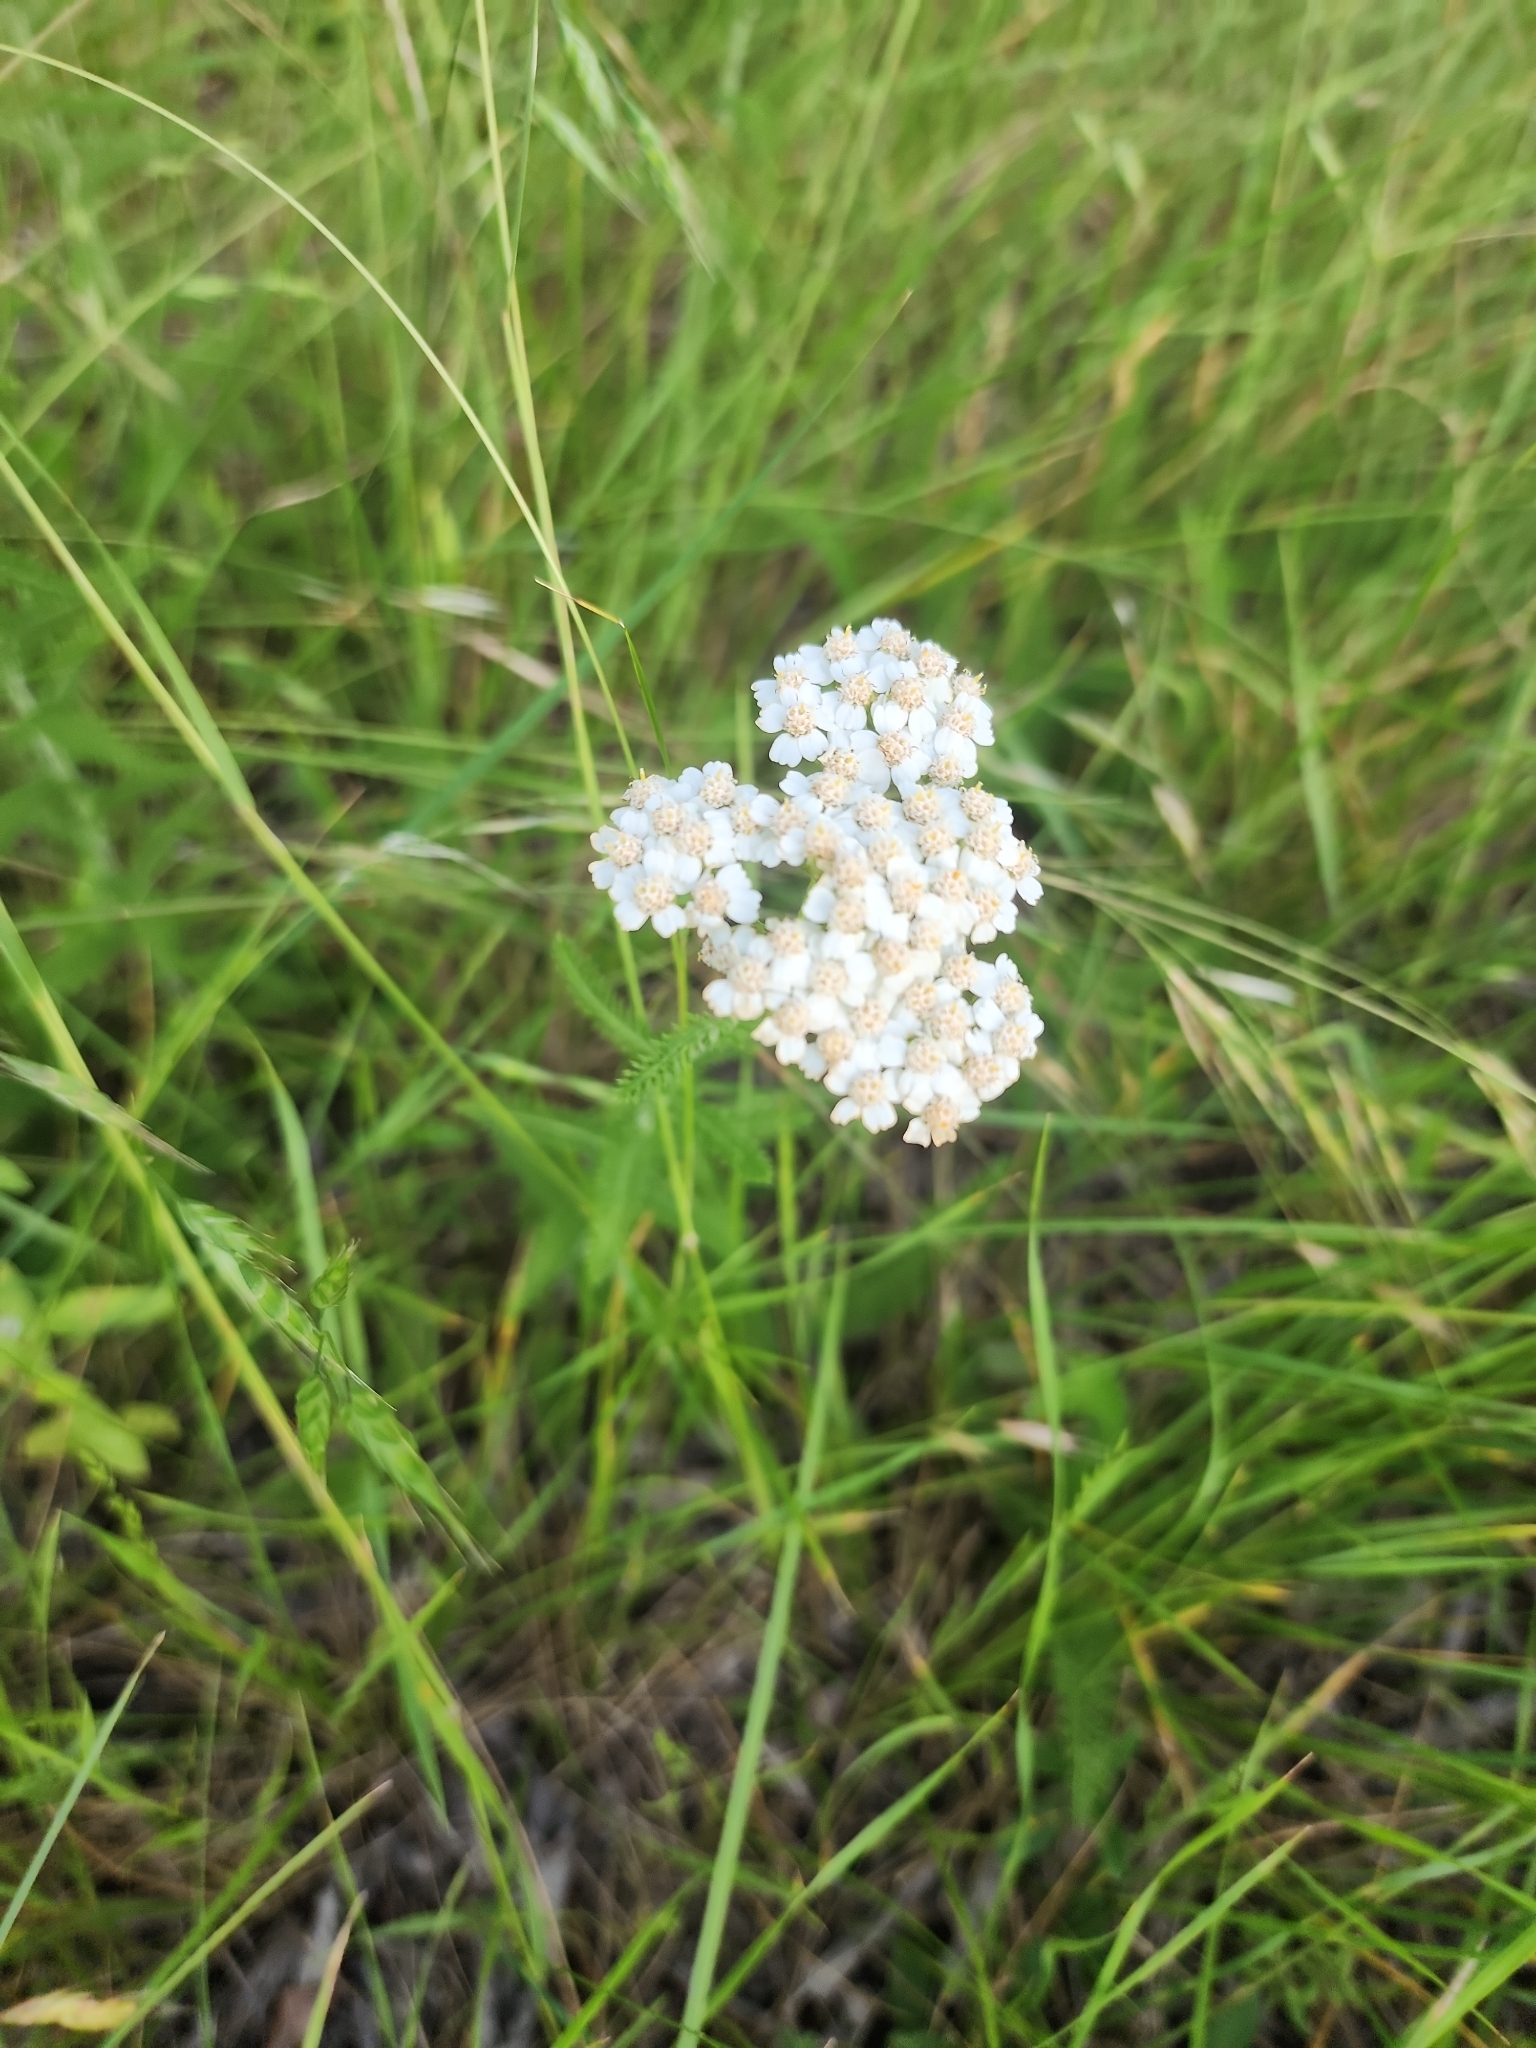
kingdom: Plantae
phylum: Tracheophyta
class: Magnoliopsida
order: Asterales
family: Asteraceae
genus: Achillea
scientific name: Achillea millefolium
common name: Yarrow
